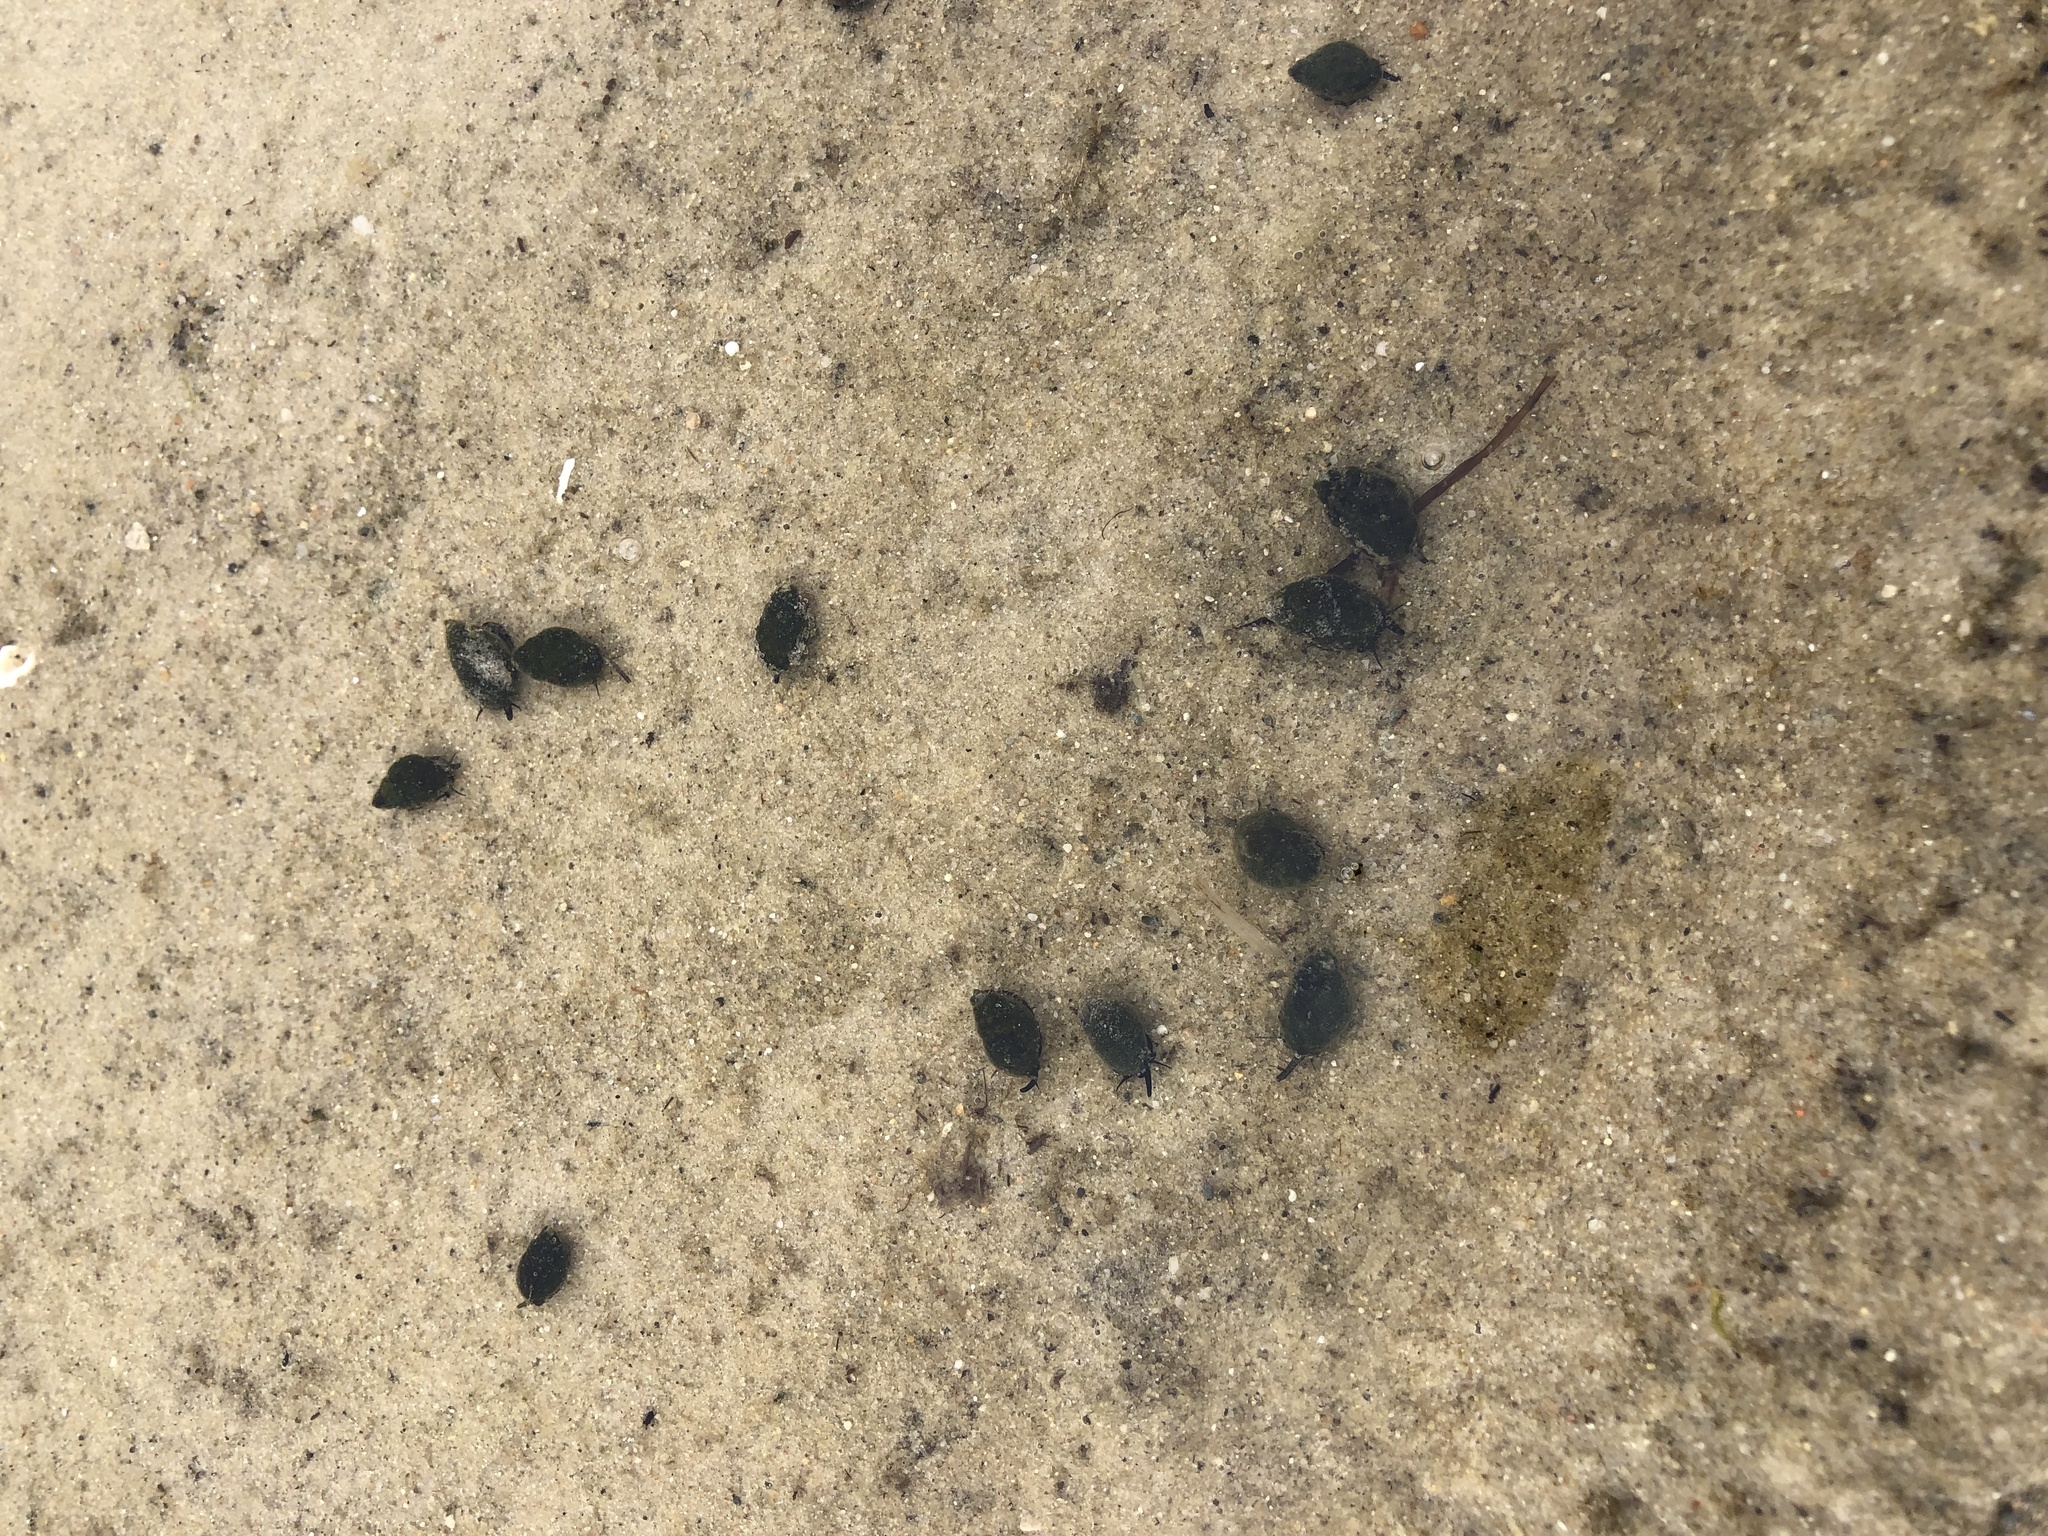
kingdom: Animalia
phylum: Mollusca
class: Gastropoda
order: Neogastropoda
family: Nassariidae
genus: Ilyanassa
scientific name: Ilyanassa obsoleta
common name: Eastern mudsnail
